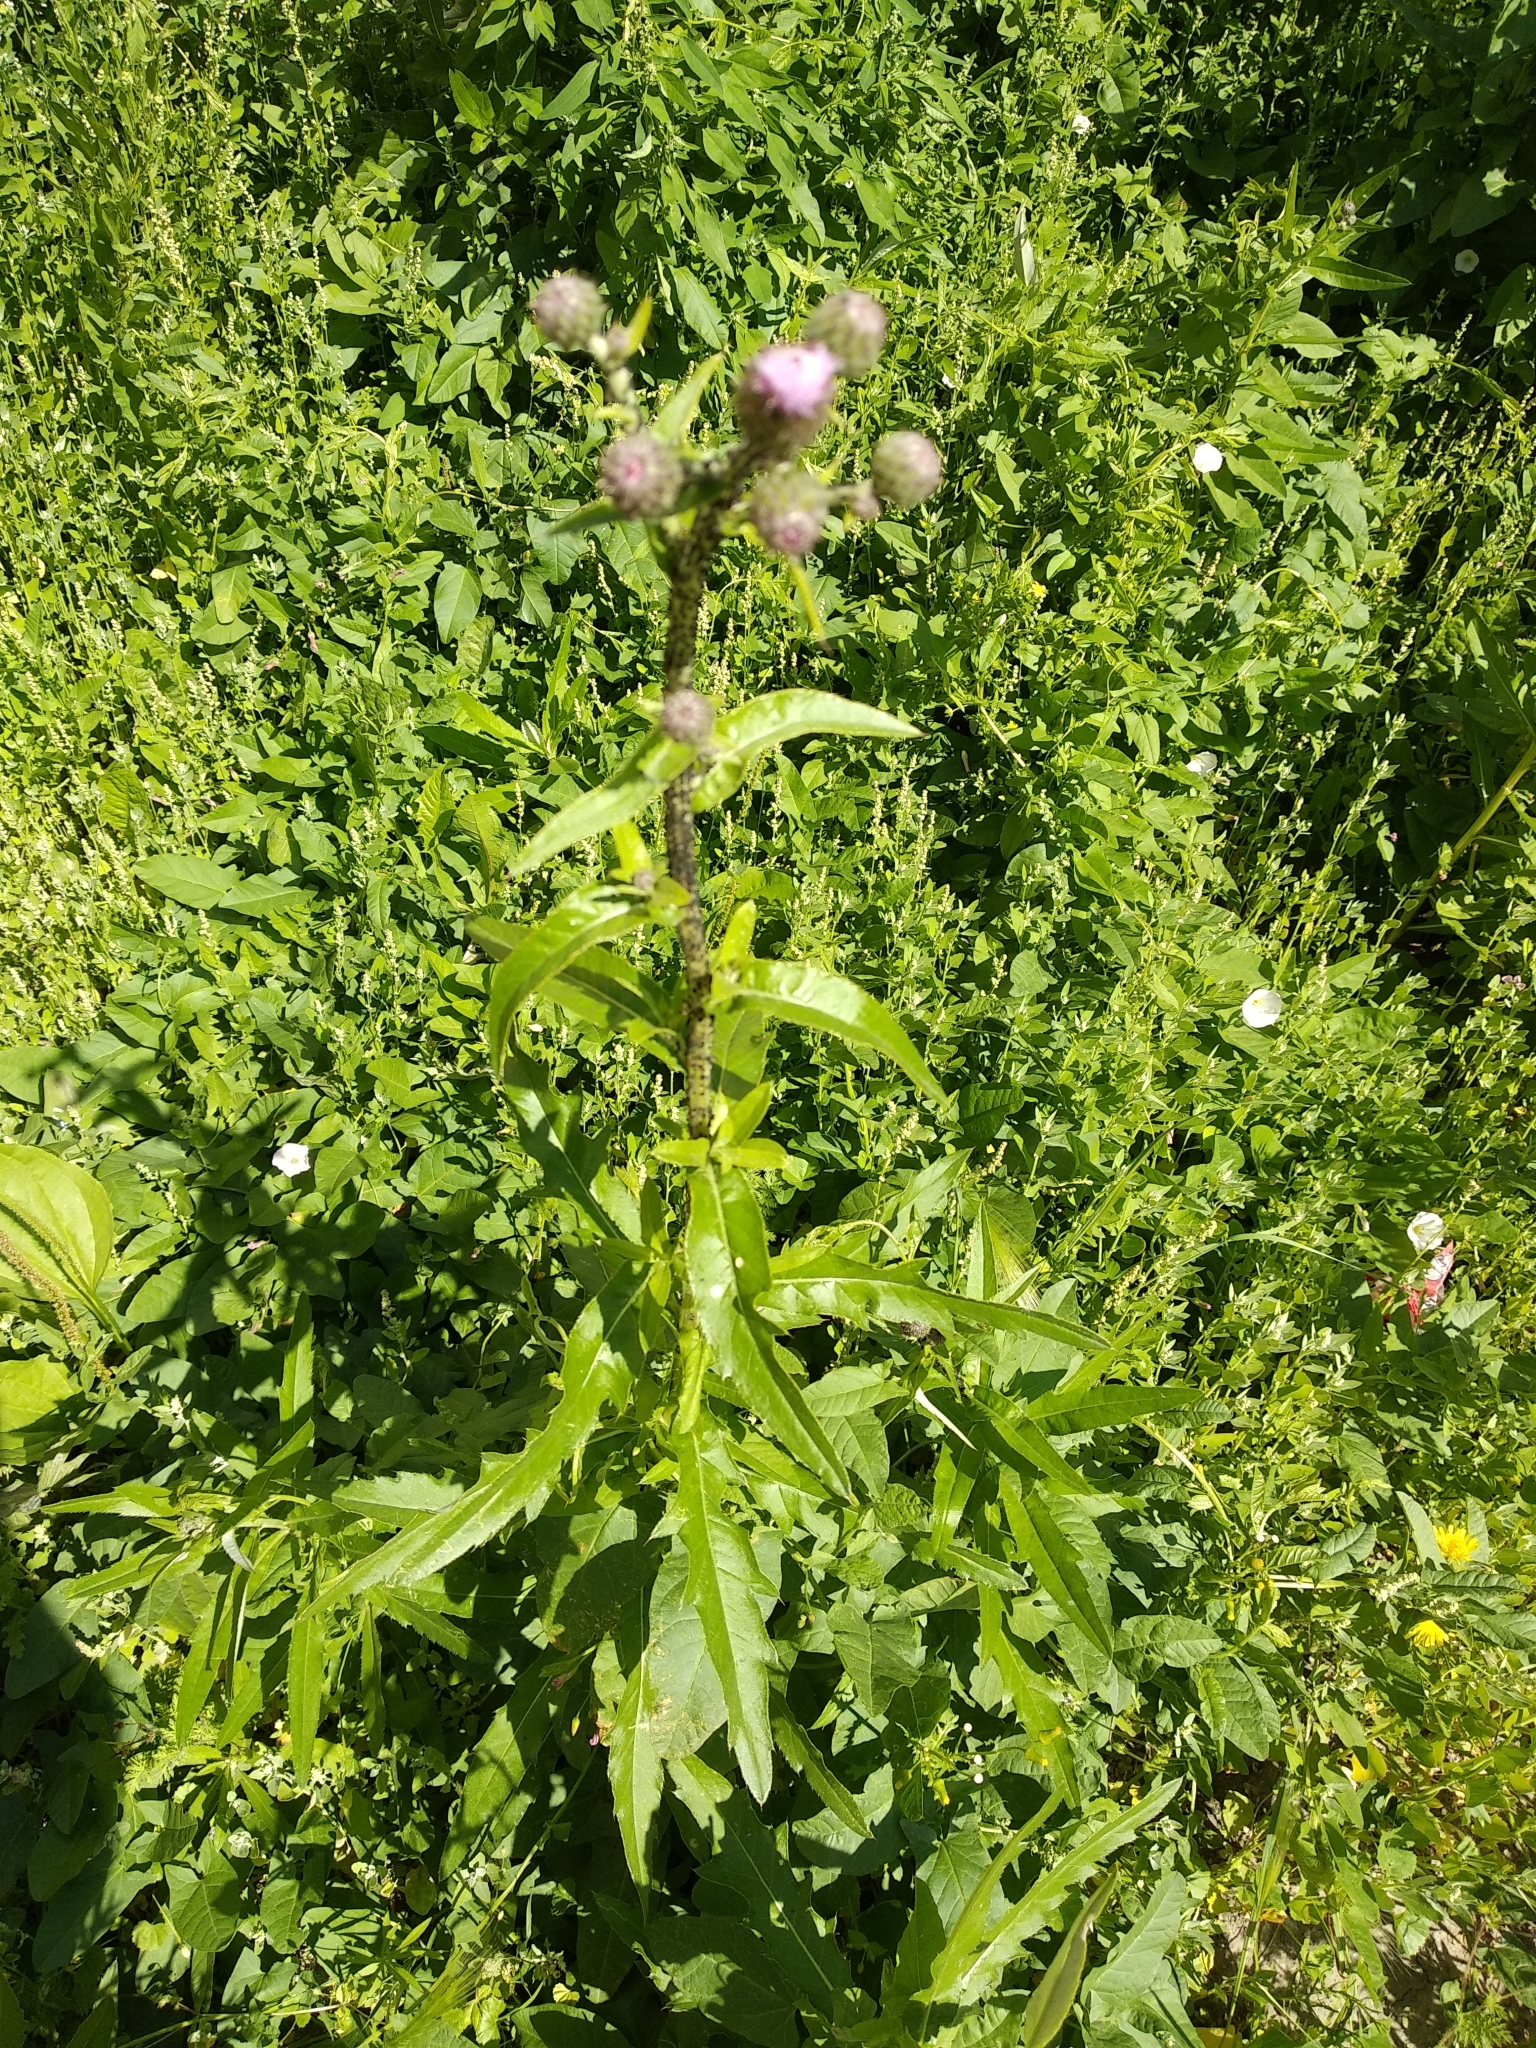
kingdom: Plantae
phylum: Tracheophyta
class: Magnoliopsida
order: Asterales
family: Asteraceae
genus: Cirsium
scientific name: Cirsium arvense
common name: Creeping thistle
